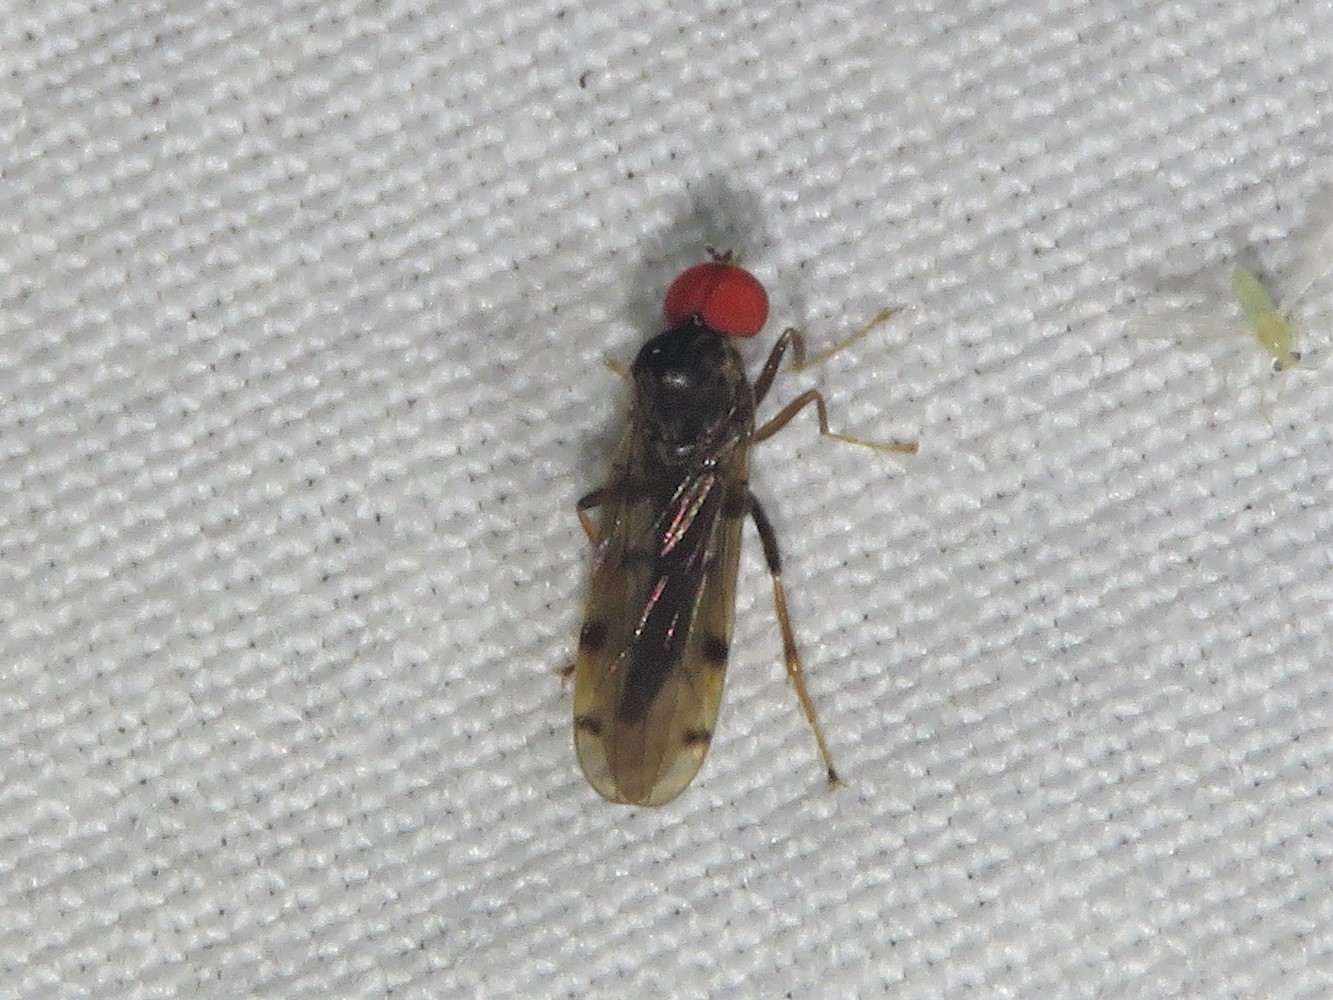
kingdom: Animalia
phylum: Arthropoda
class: Insecta
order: Diptera
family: Hybotidae
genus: Syneches
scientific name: Syneches simplex
